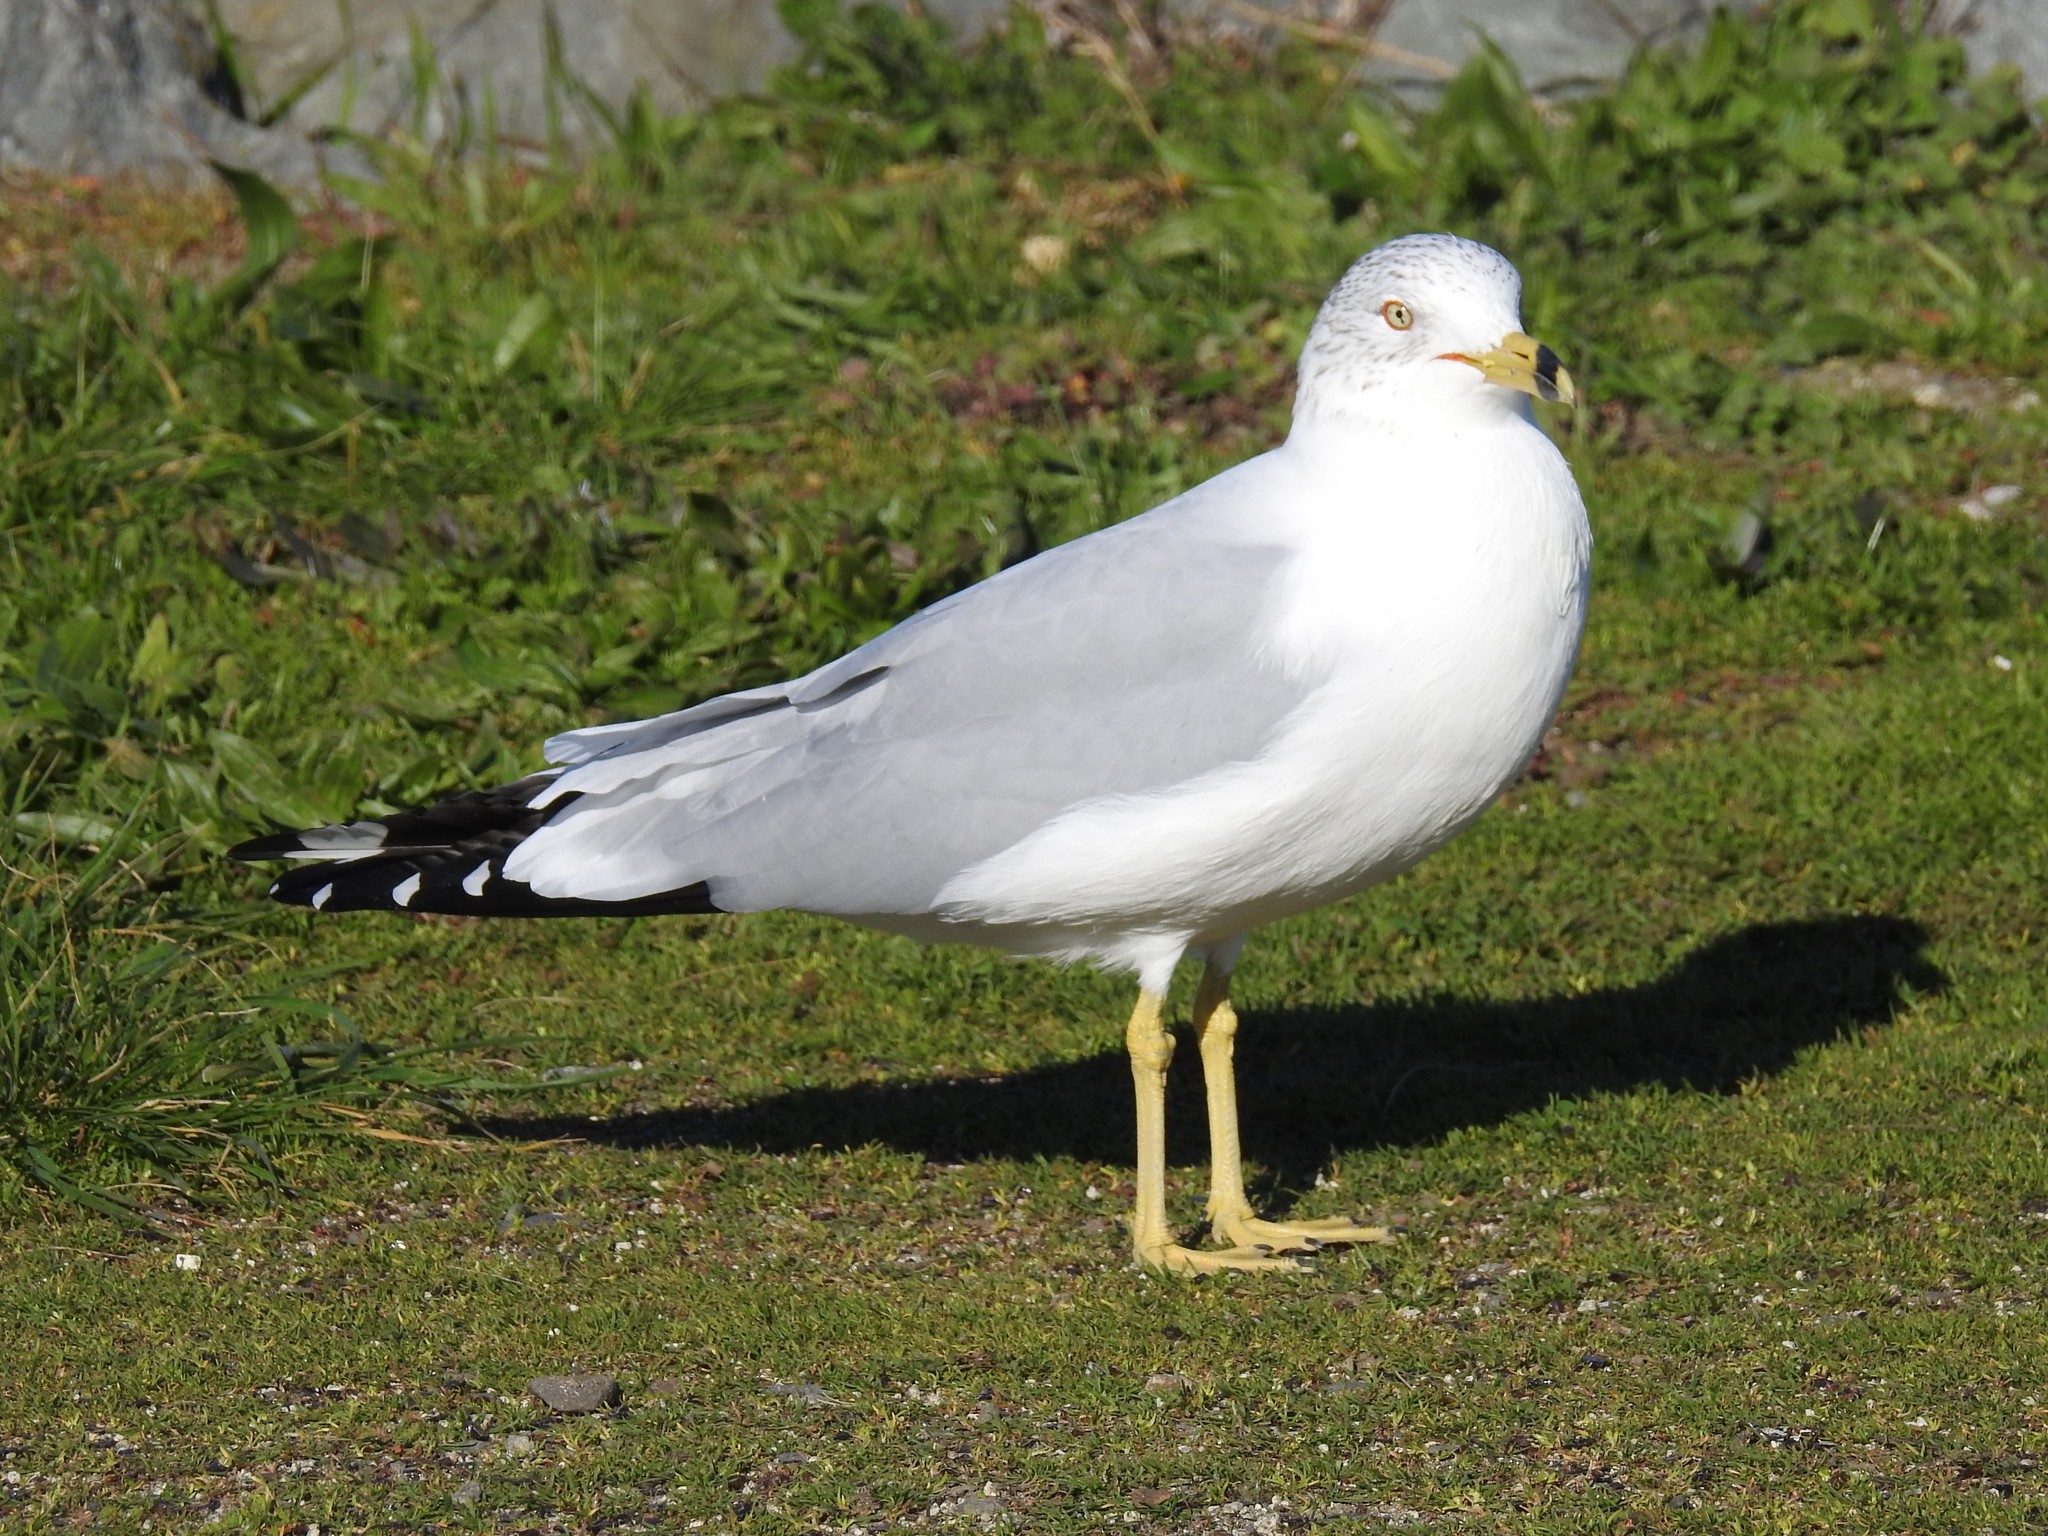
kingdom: Animalia
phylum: Chordata
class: Aves
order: Charadriiformes
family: Laridae
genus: Larus
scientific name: Larus delawarensis
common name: Ring-billed gull
